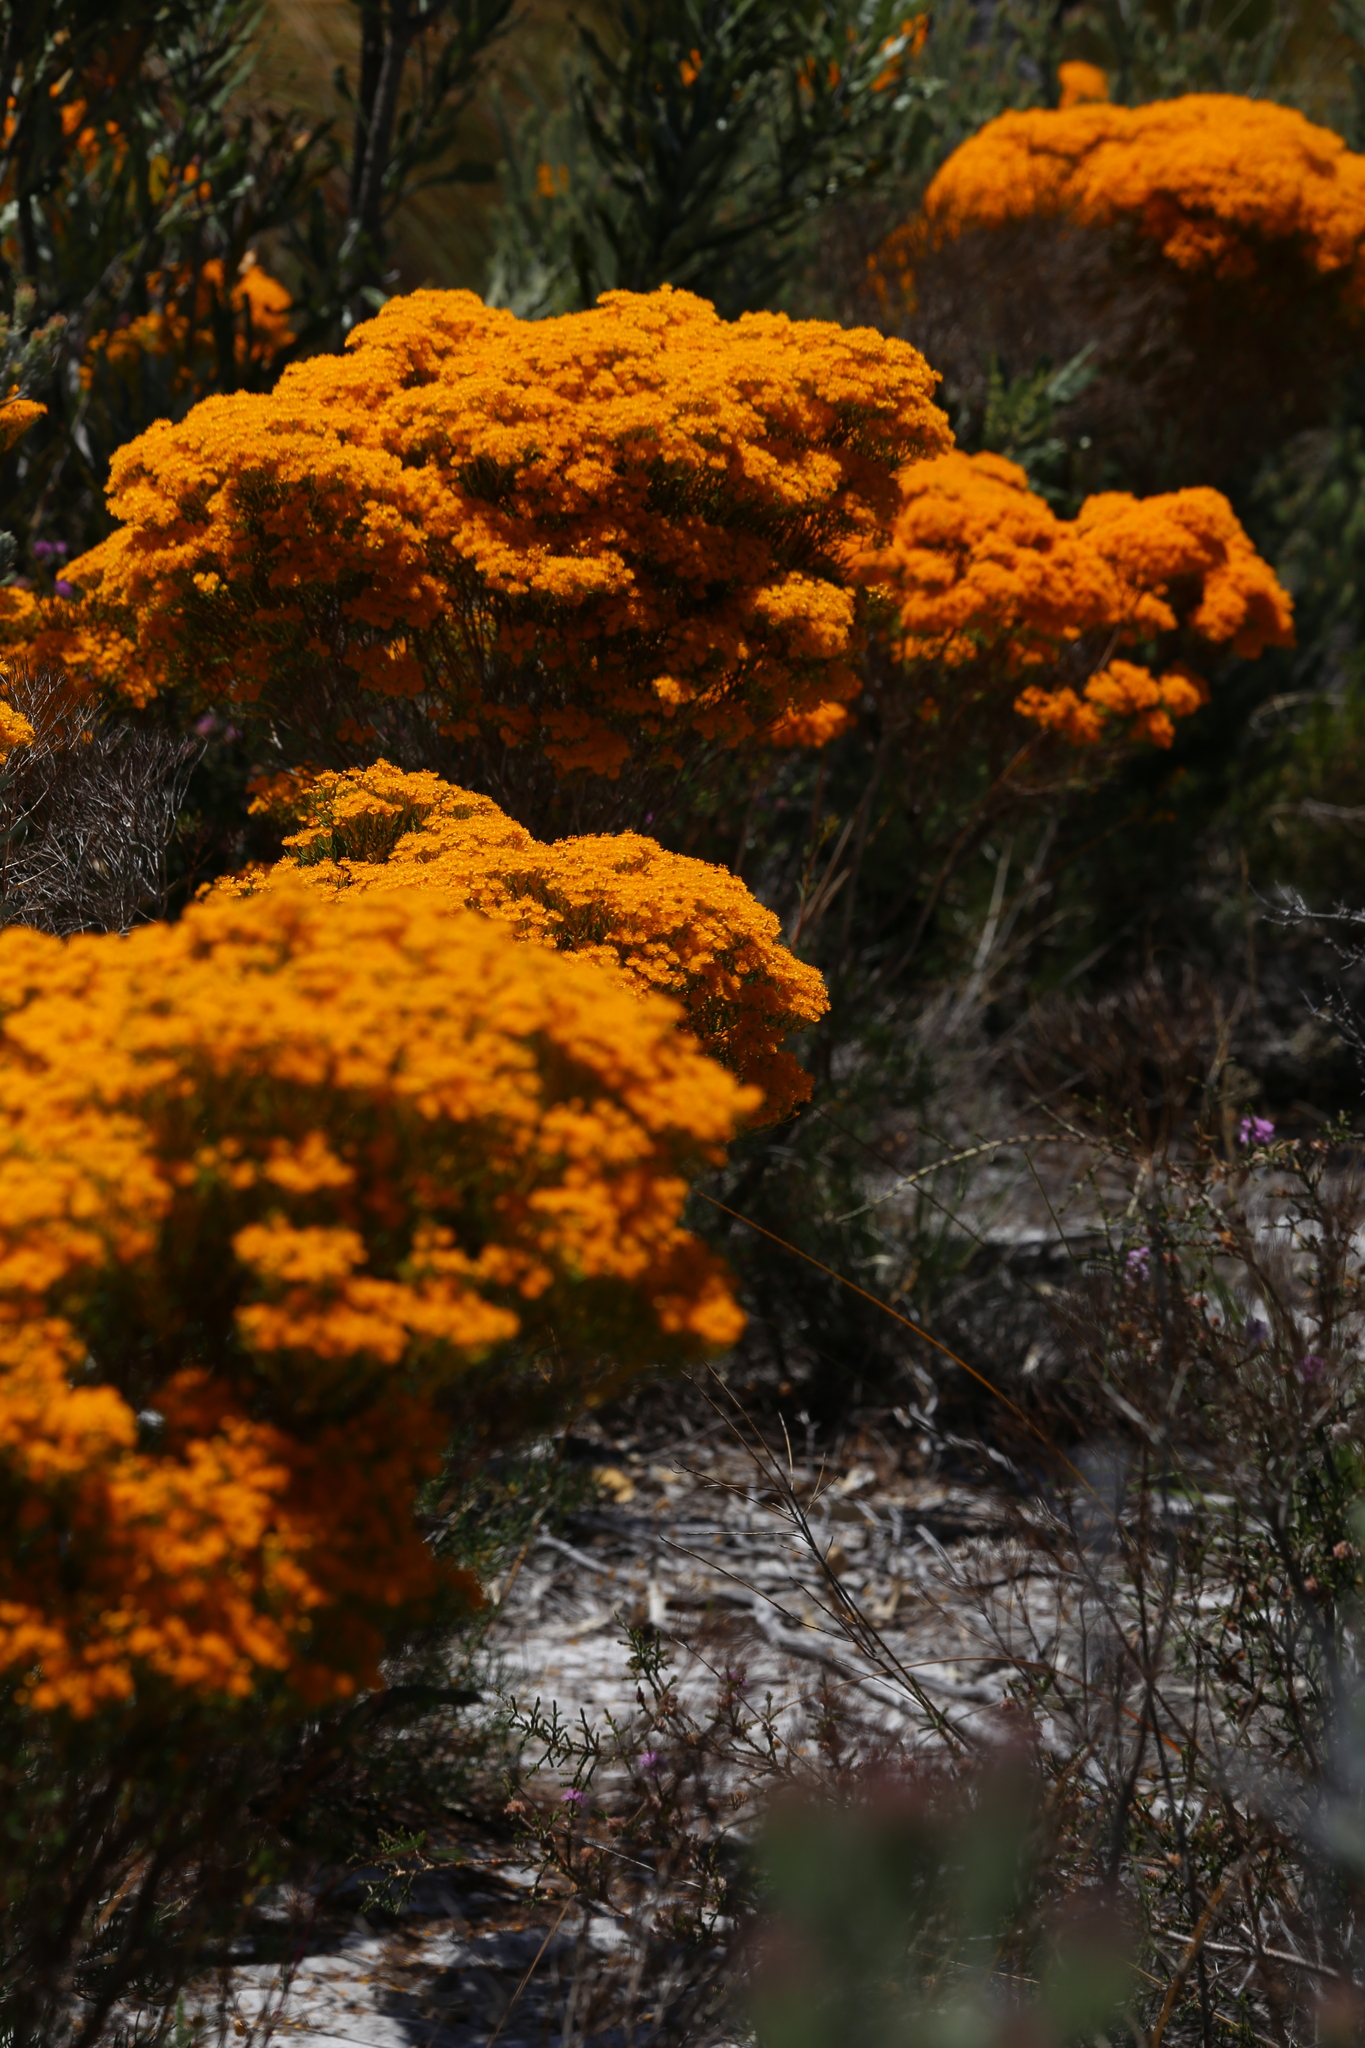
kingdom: Plantae
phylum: Tracheophyta
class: Magnoliopsida
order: Myrtales
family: Myrtaceae
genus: Verticordia
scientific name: Verticordia nitens
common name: Christmas morrison
